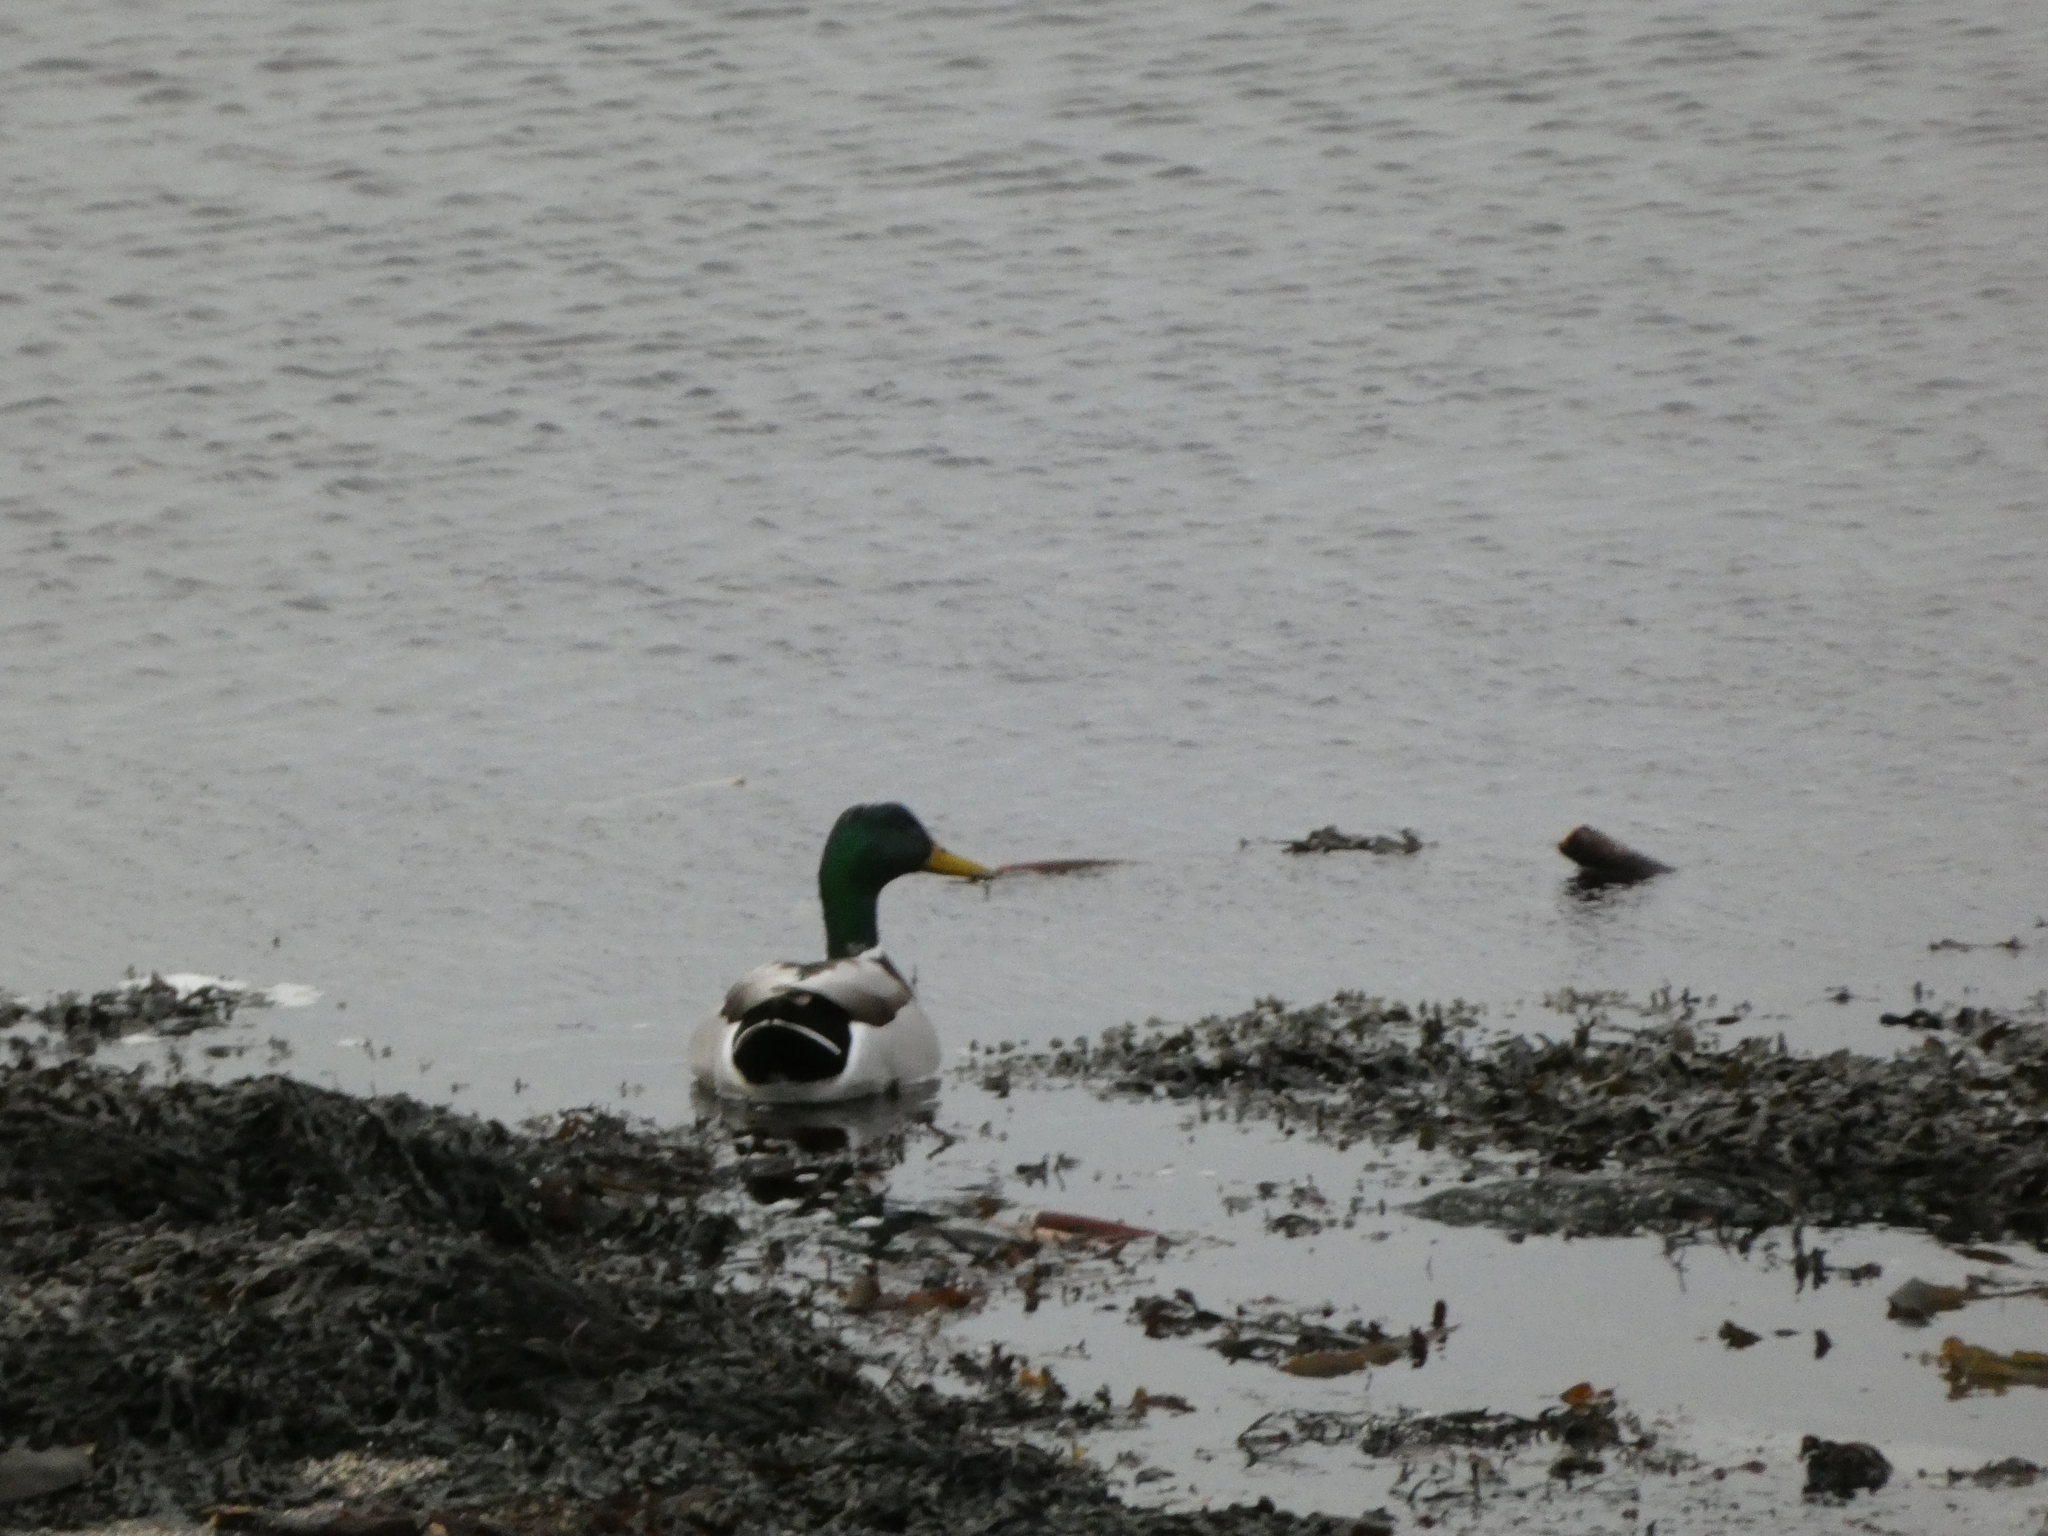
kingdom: Animalia
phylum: Chordata
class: Aves
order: Anseriformes
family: Anatidae
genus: Anas
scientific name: Anas platyrhynchos
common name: Mallard
